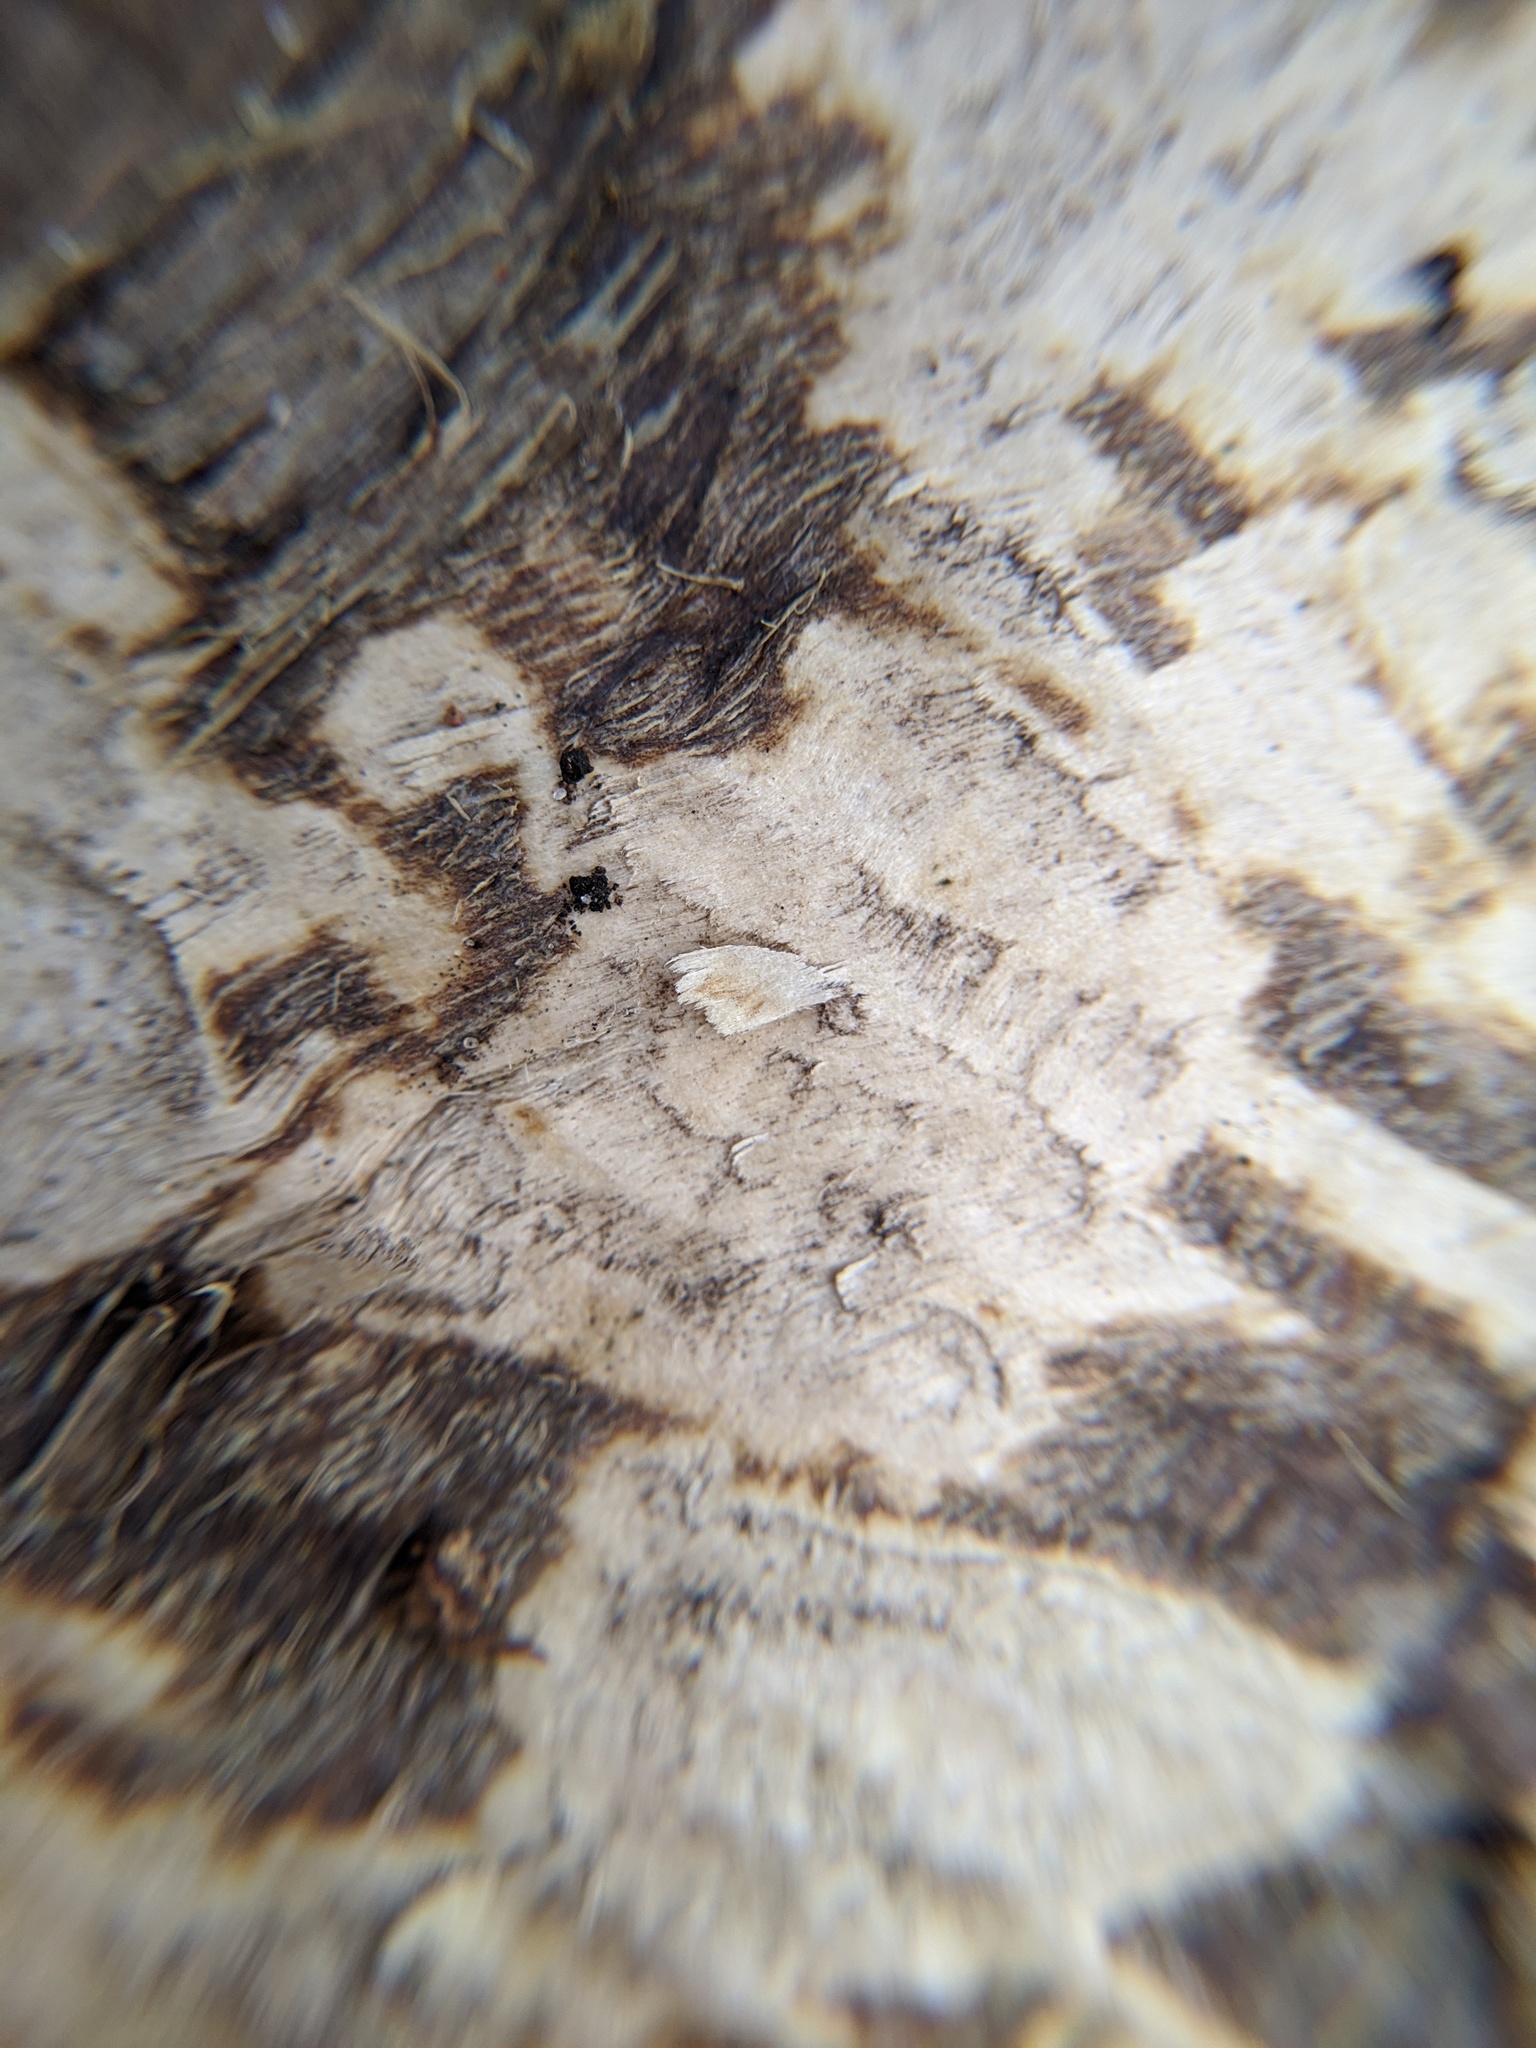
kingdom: Animalia
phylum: Chordata
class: Mammalia
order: Rodentia
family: Castoridae
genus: Castor
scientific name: Castor canadensis
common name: American beaver
